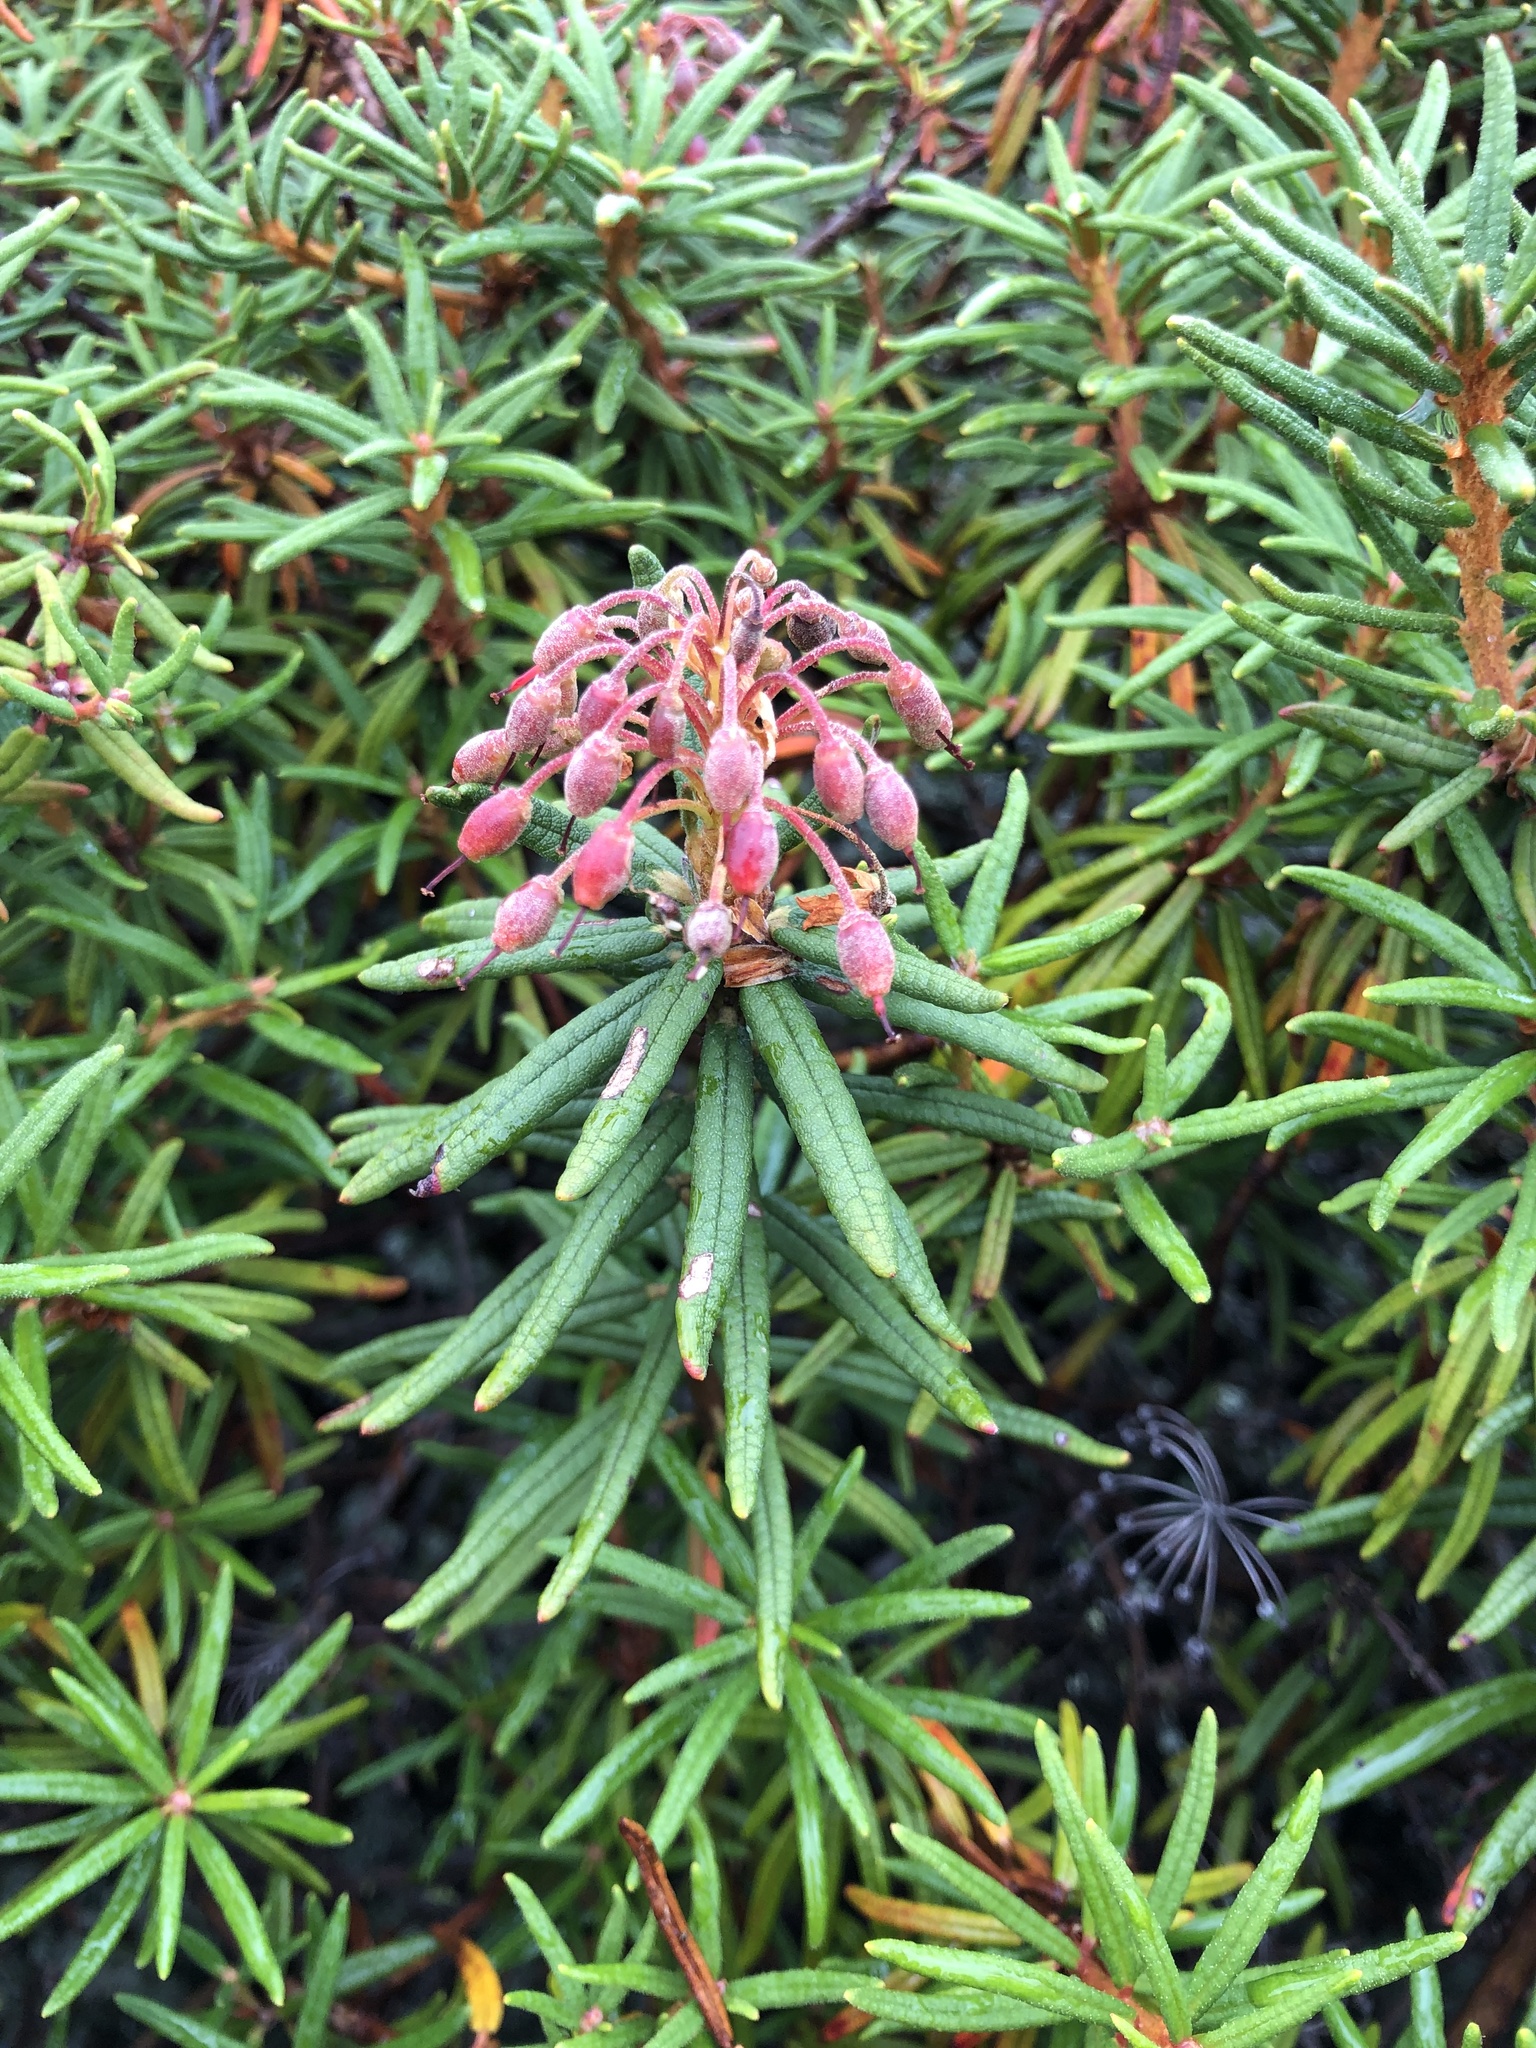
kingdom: Plantae
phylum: Tracheophyta
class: Magnoliopsida
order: Ericales
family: Ericaceae
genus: Rhododendron
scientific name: Rhododendron tomentosum
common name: Marsh labrador tea
